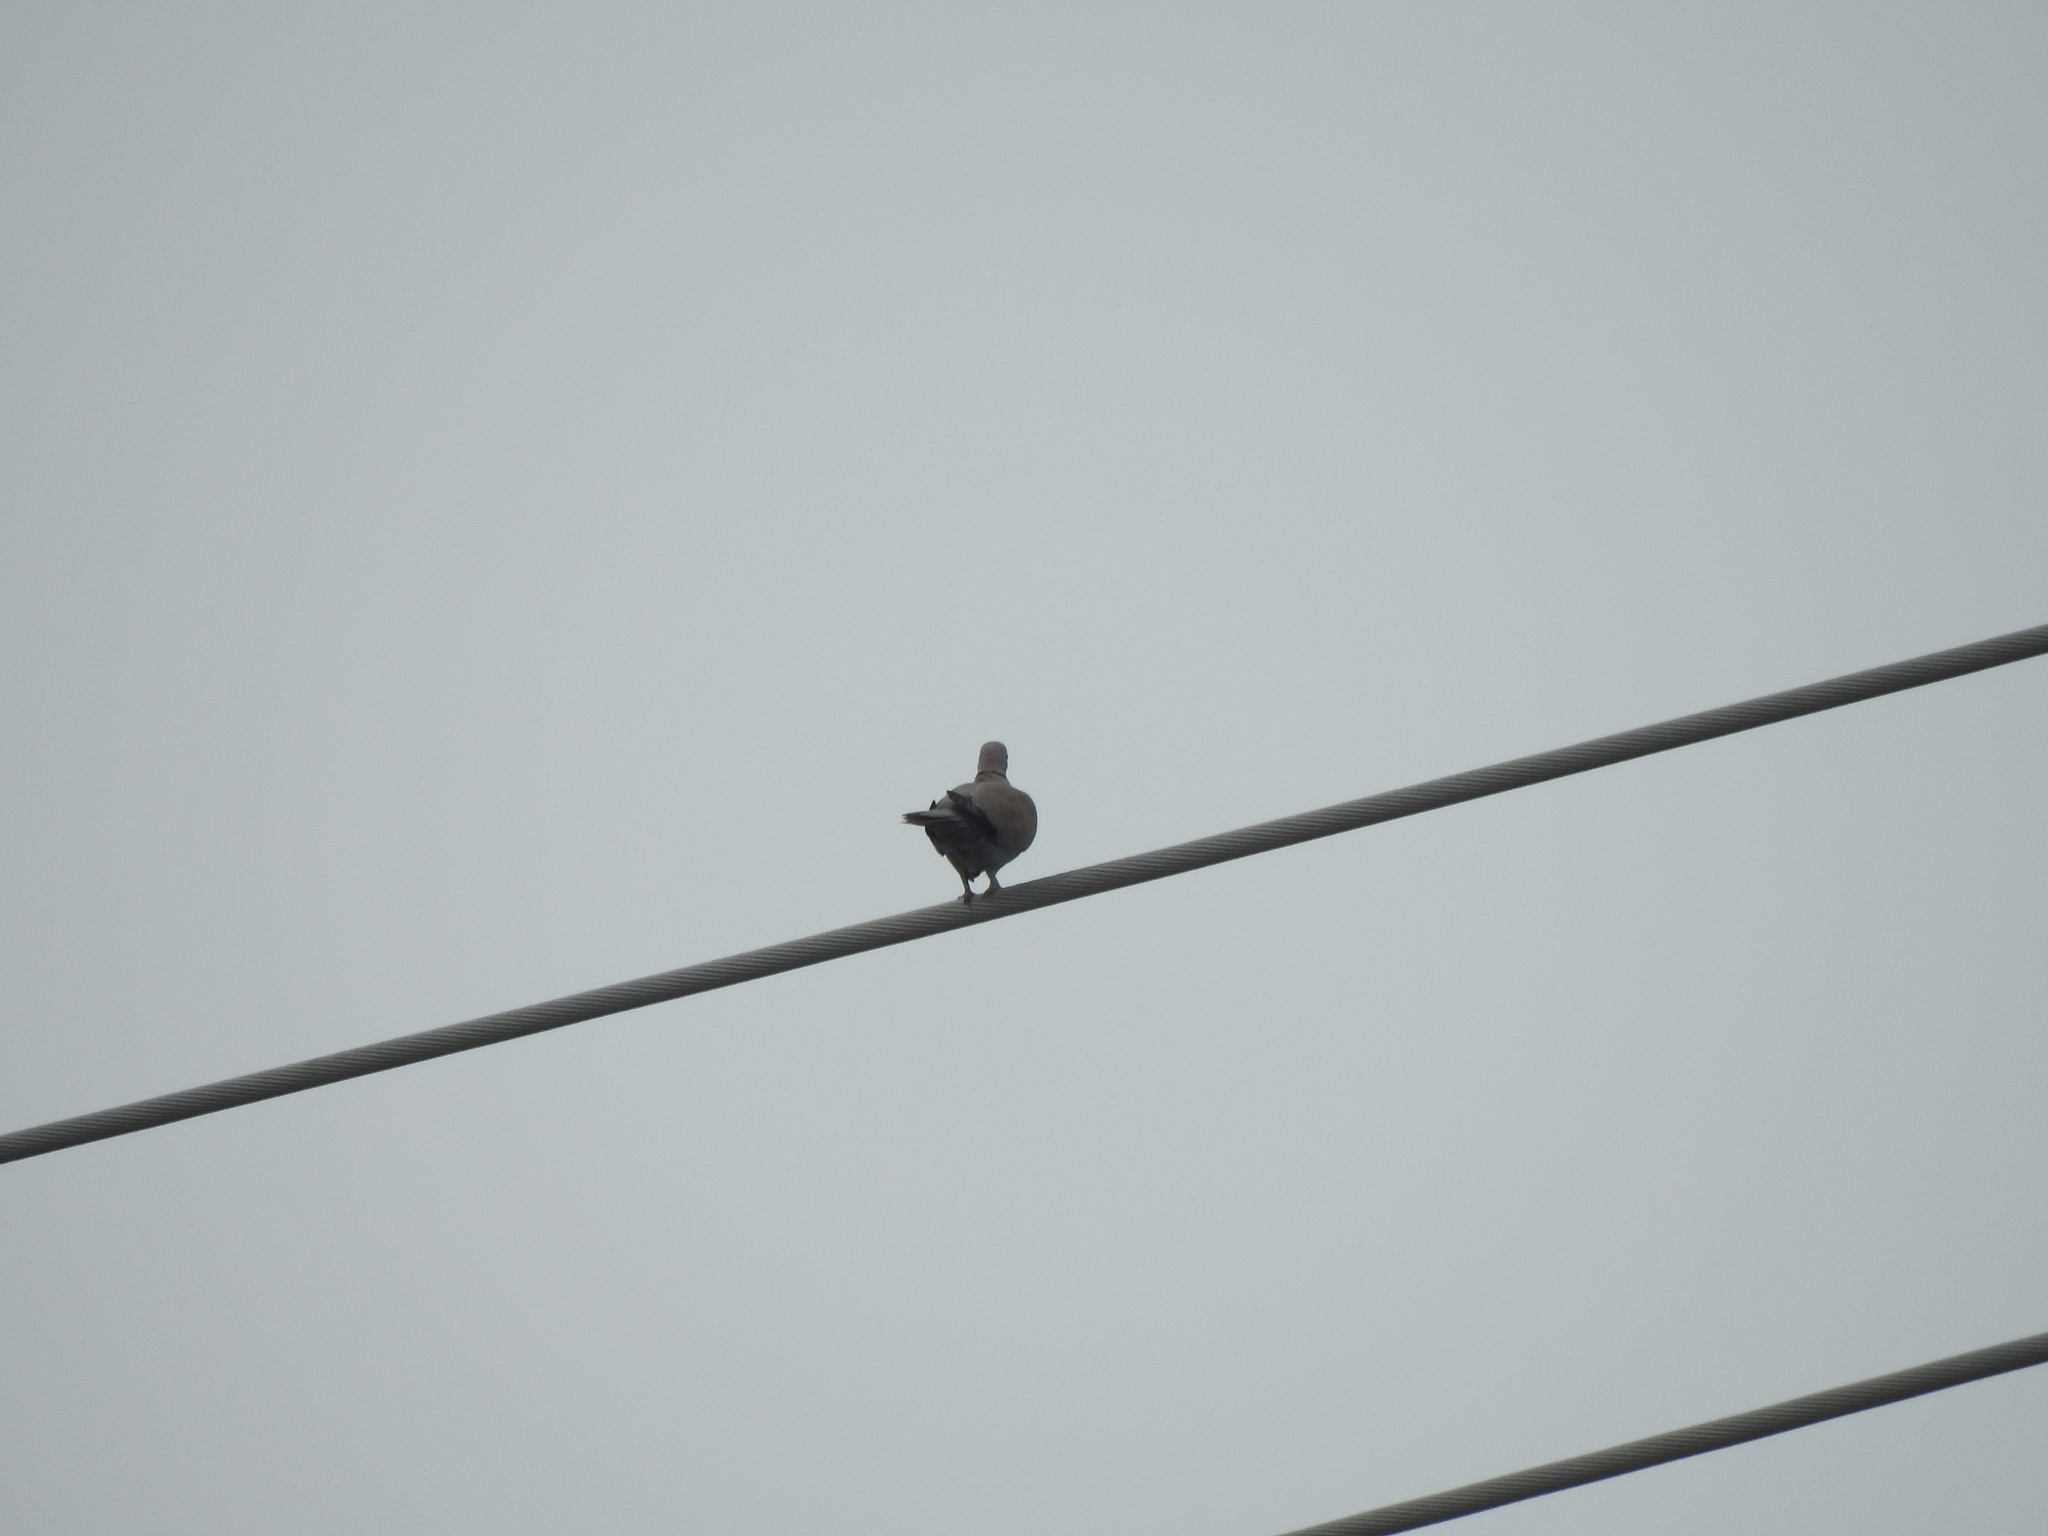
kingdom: Animalia
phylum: Chordata
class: Aves
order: Columbiformes
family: Columbidae
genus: Streptopelia
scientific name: Streptopelia decaocto
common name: Eurasian collared dove
